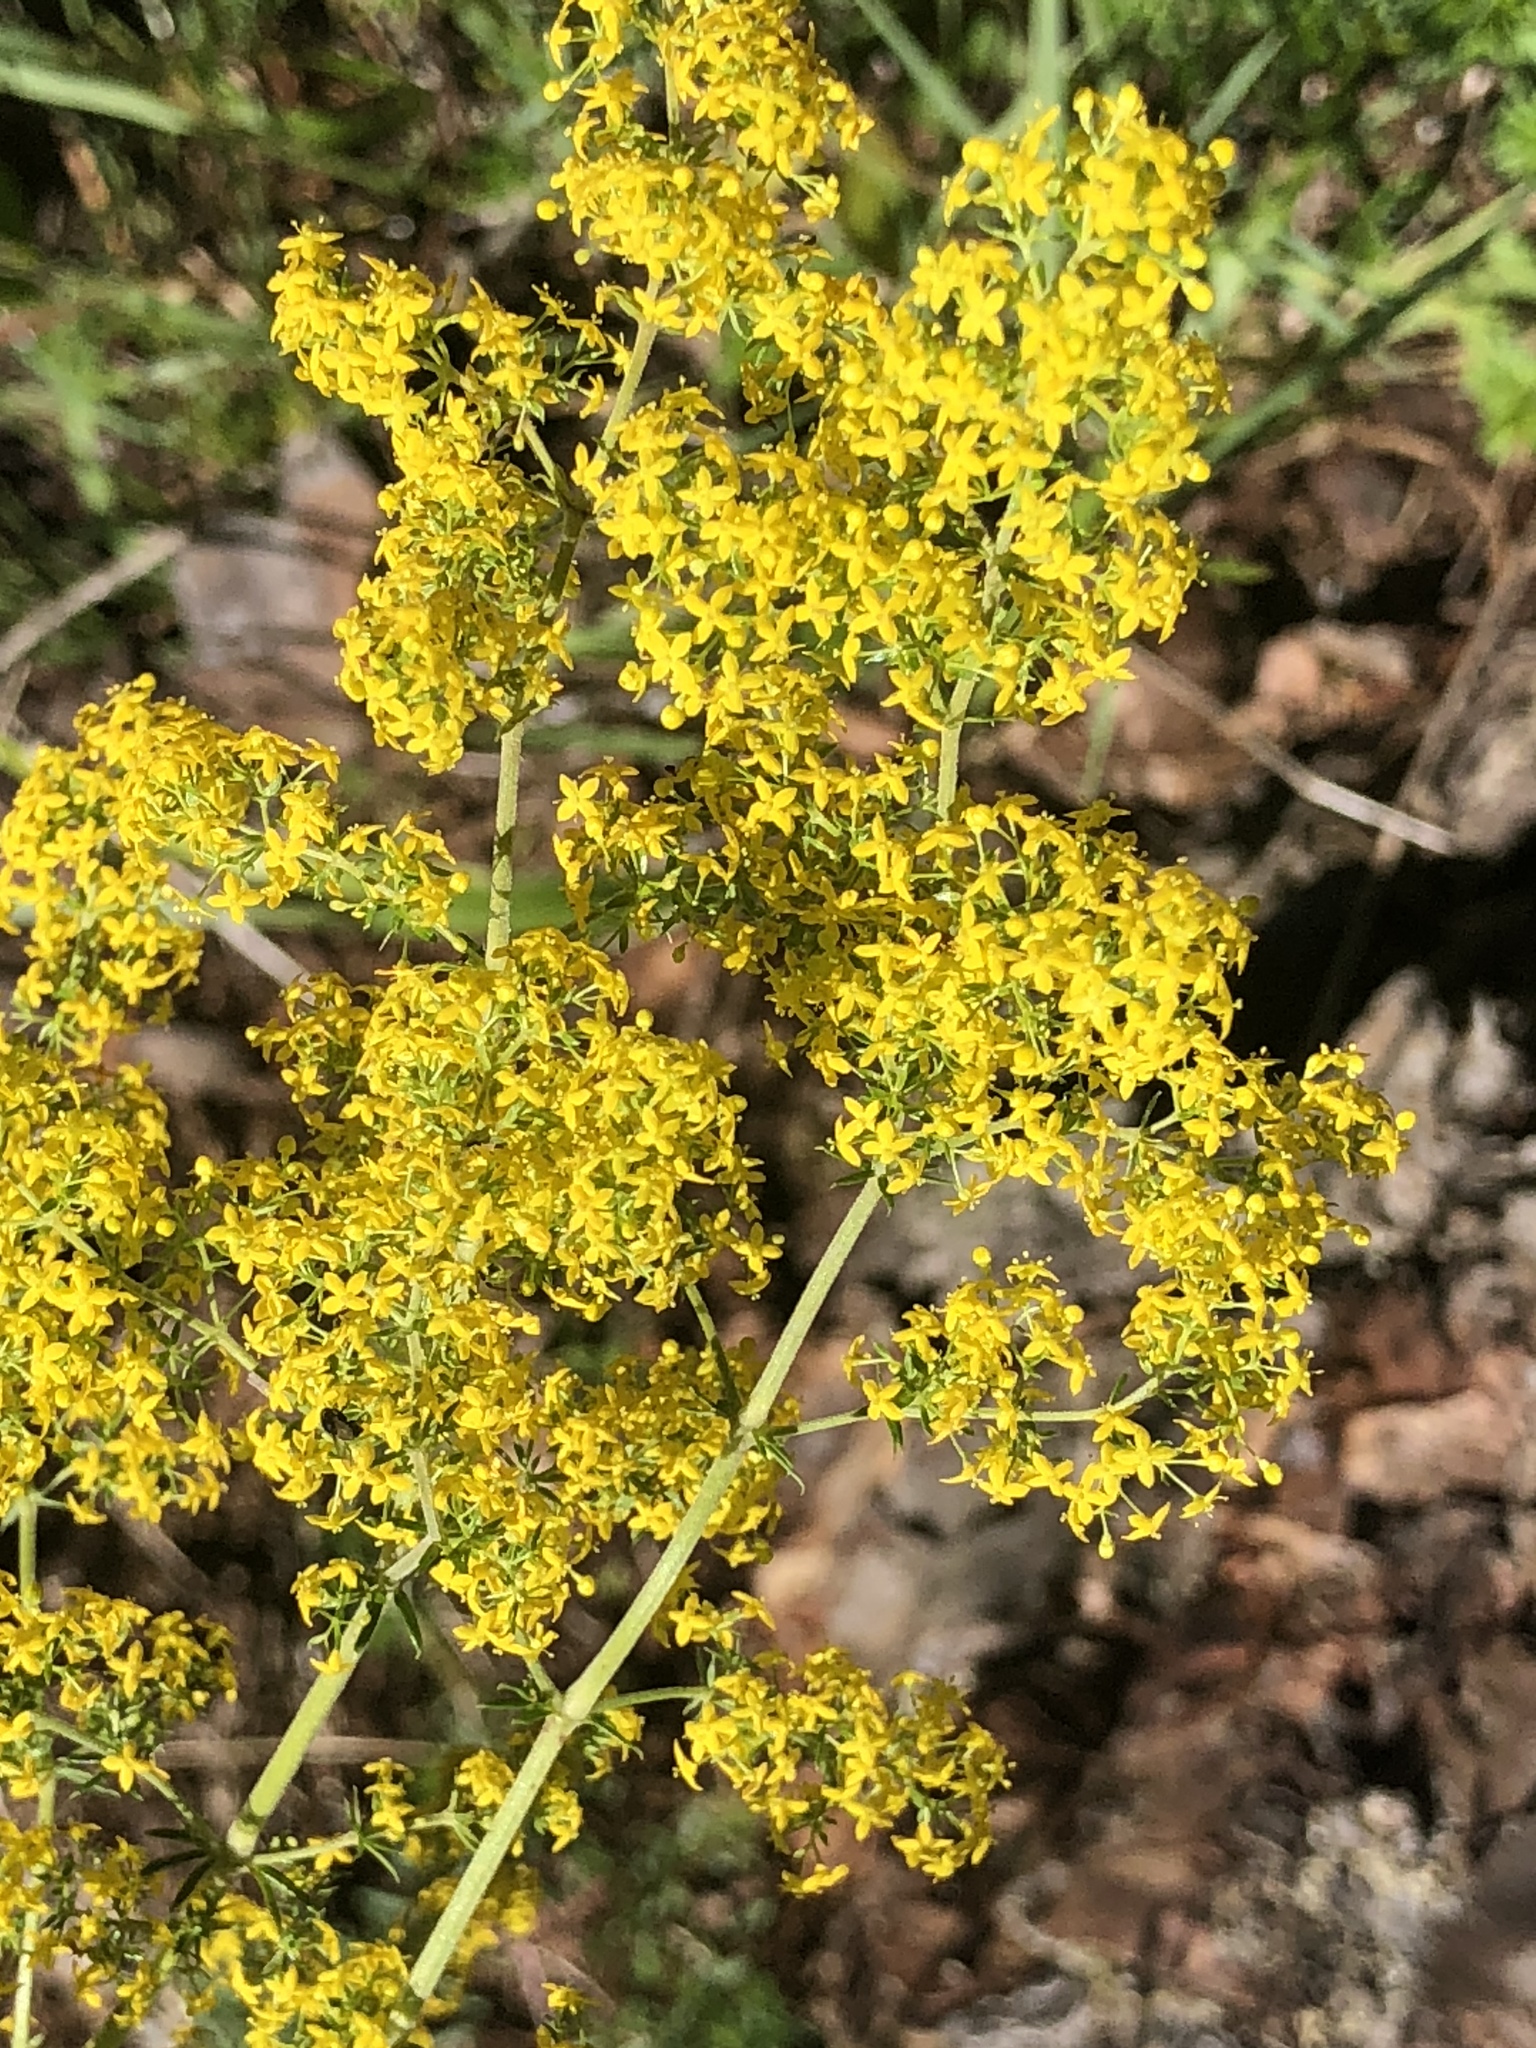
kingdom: Plantae
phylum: Tracheophyta
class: Magnoliopsida
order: Gentianales
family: Rubiaceae
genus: Galium
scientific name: Galium verum
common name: Lady's bedstraw
